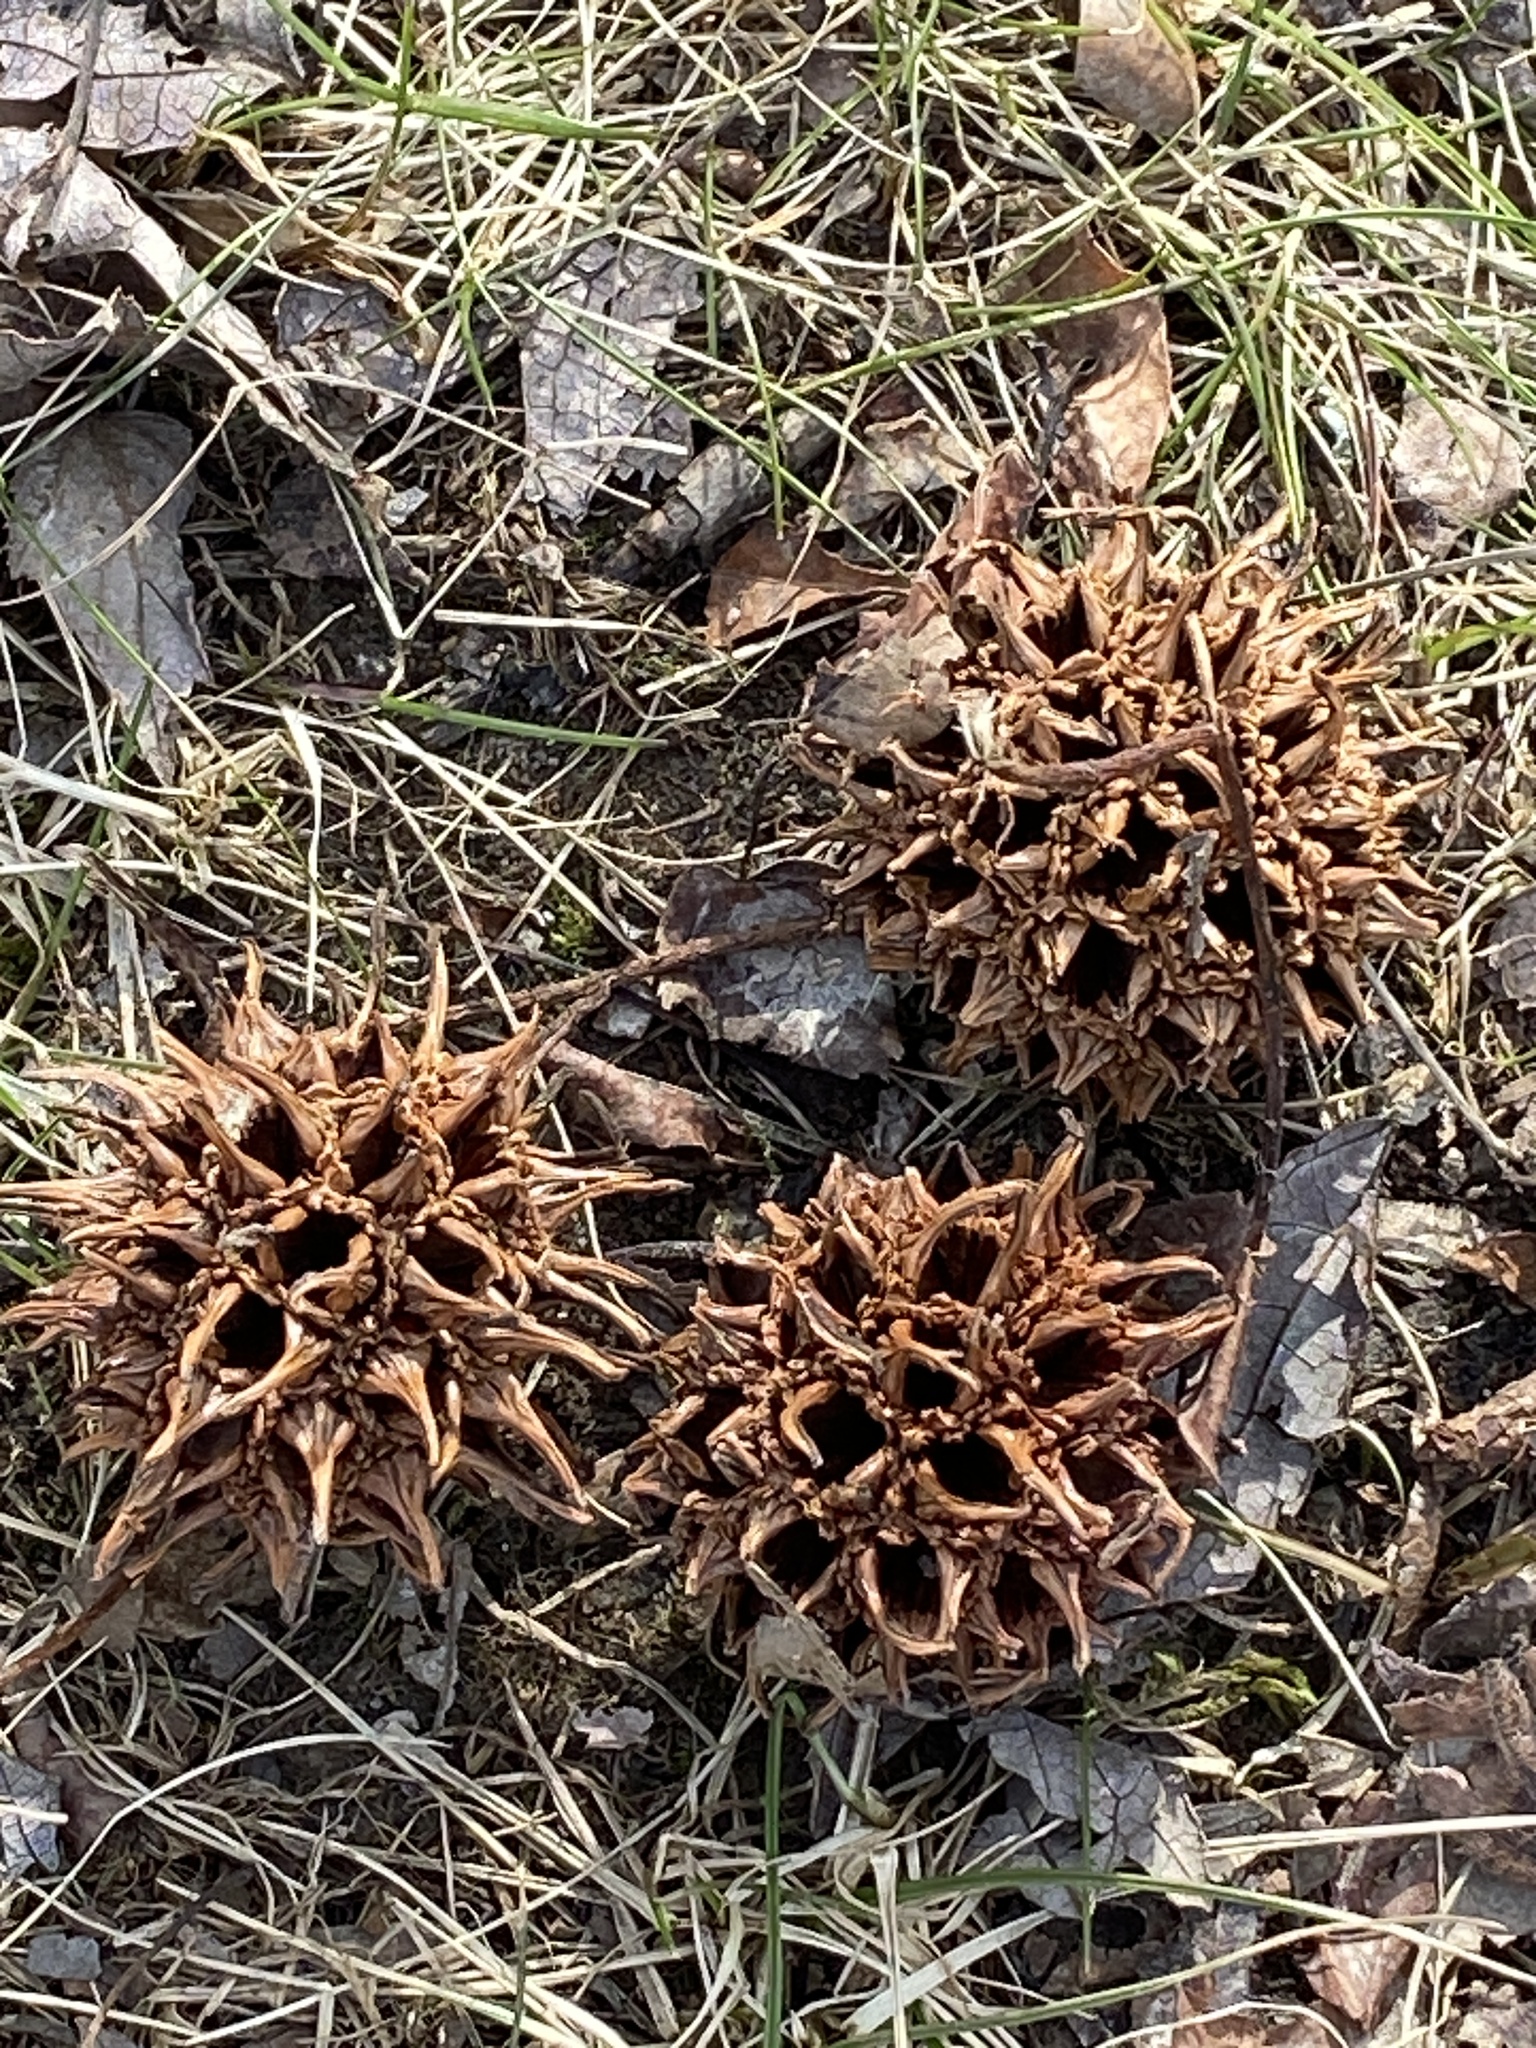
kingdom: Plantae
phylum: Tracheophyta
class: Magnoliopsida
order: Saxifragales
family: Altingiaceae
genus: Liquidambar
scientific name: Liquidambar styraciflua
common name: Sweet gum
